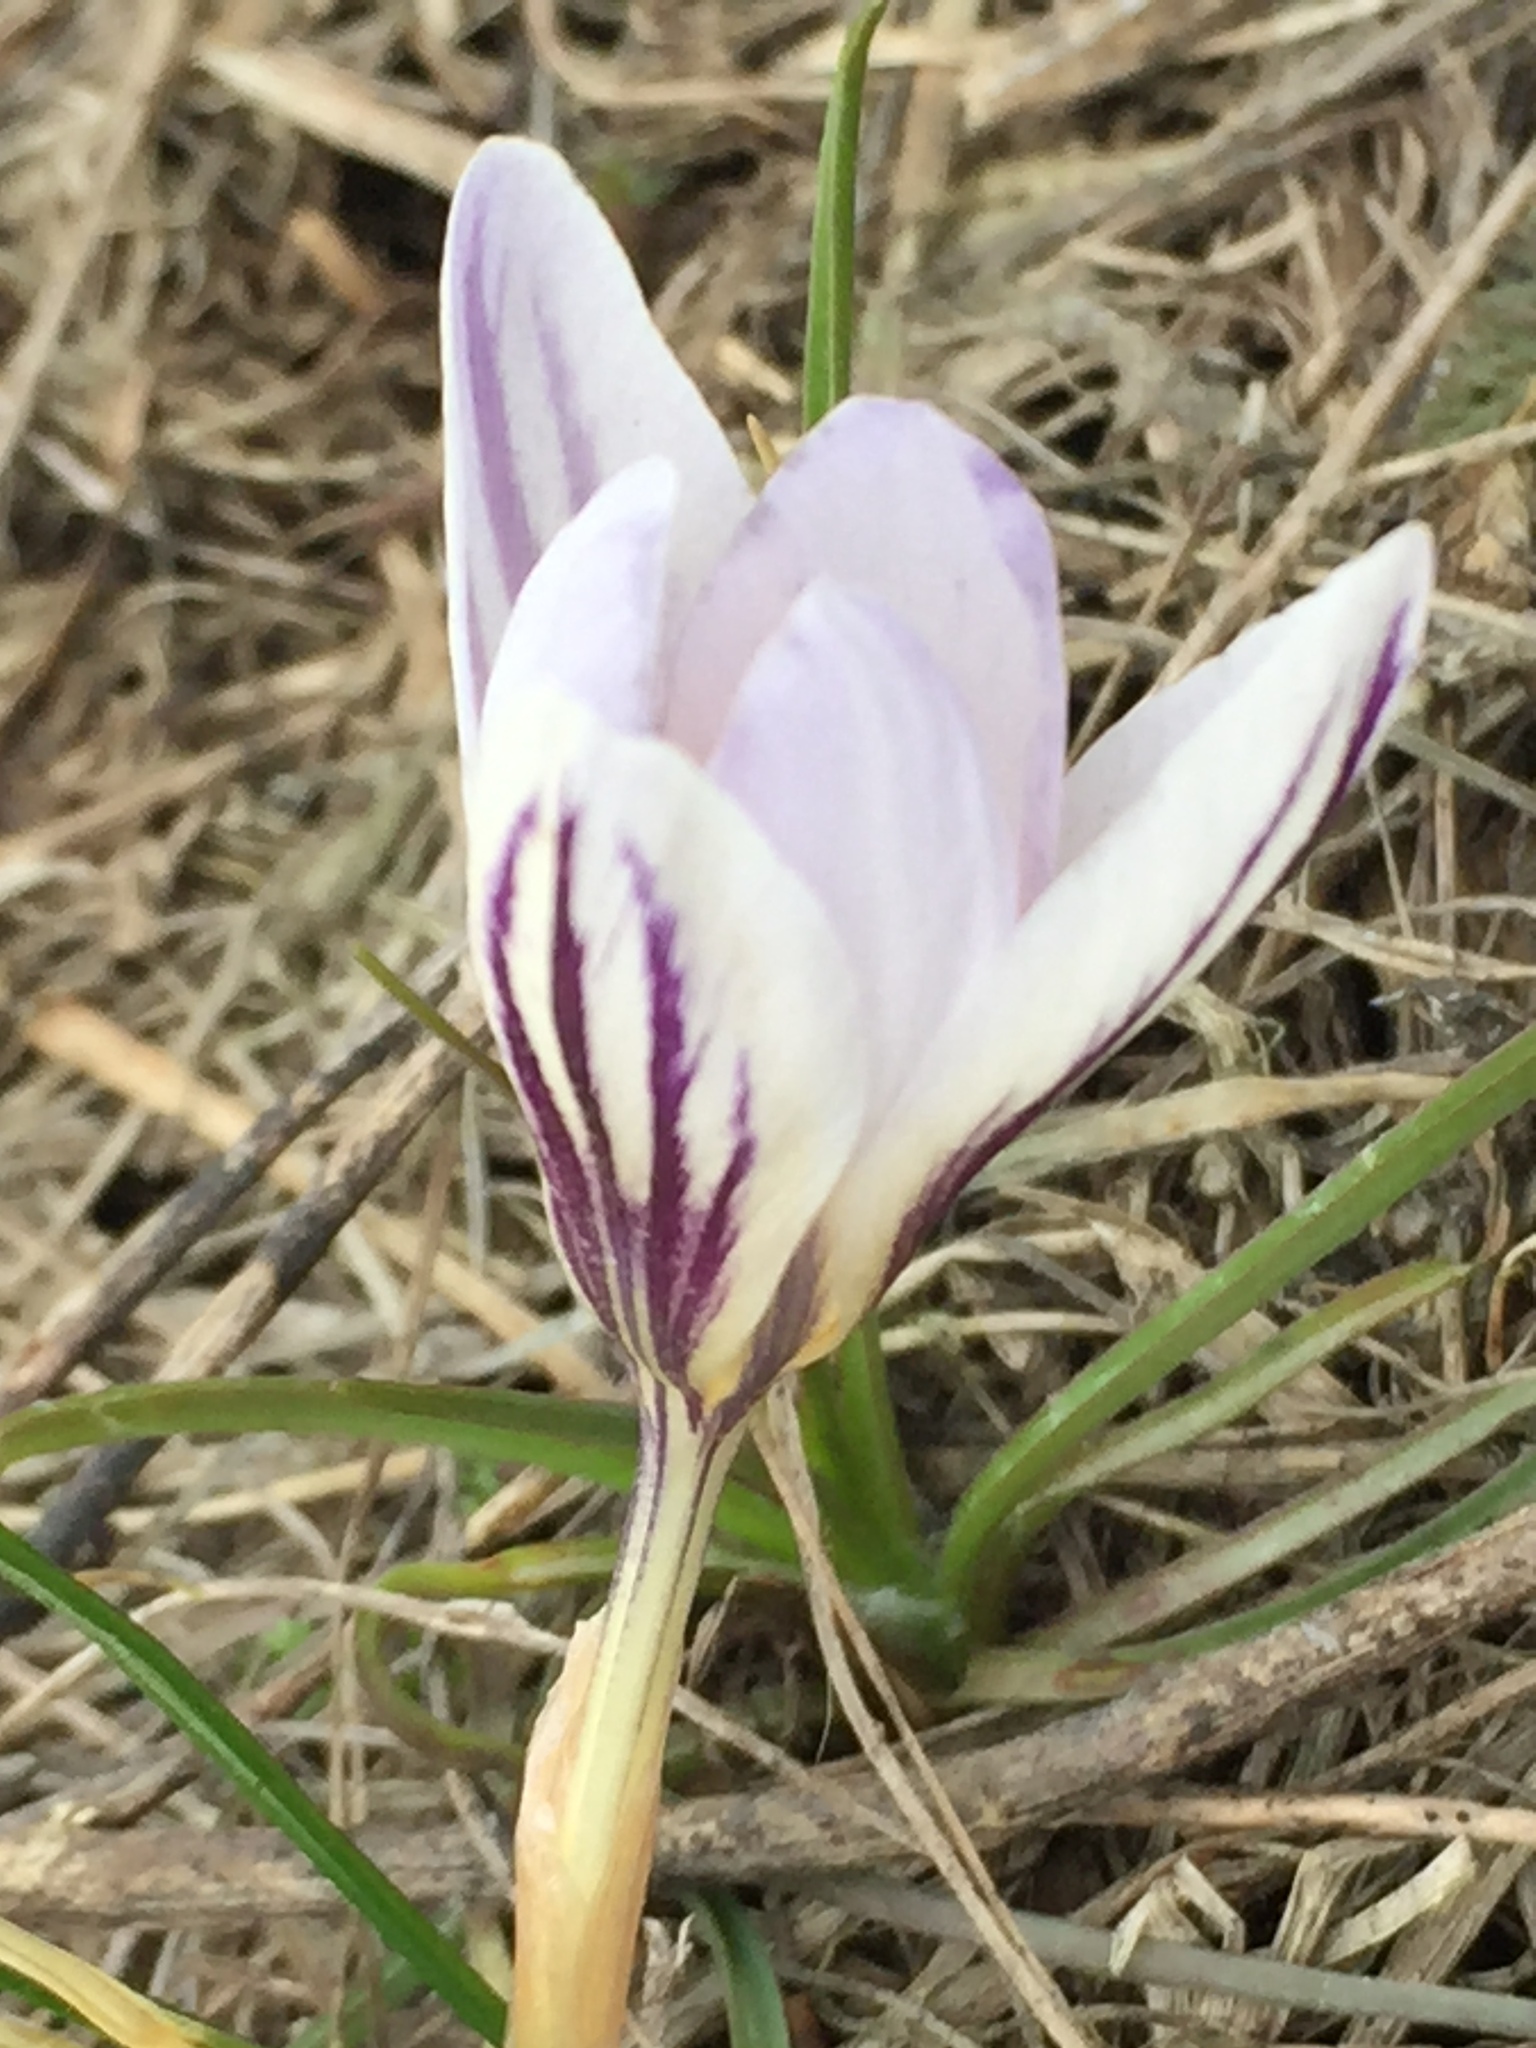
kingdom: Plantae
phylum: Tracheophyta
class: Liliopsida
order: Asparagales
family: Iridaceae
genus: Crocus
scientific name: Crocus reticulatus
